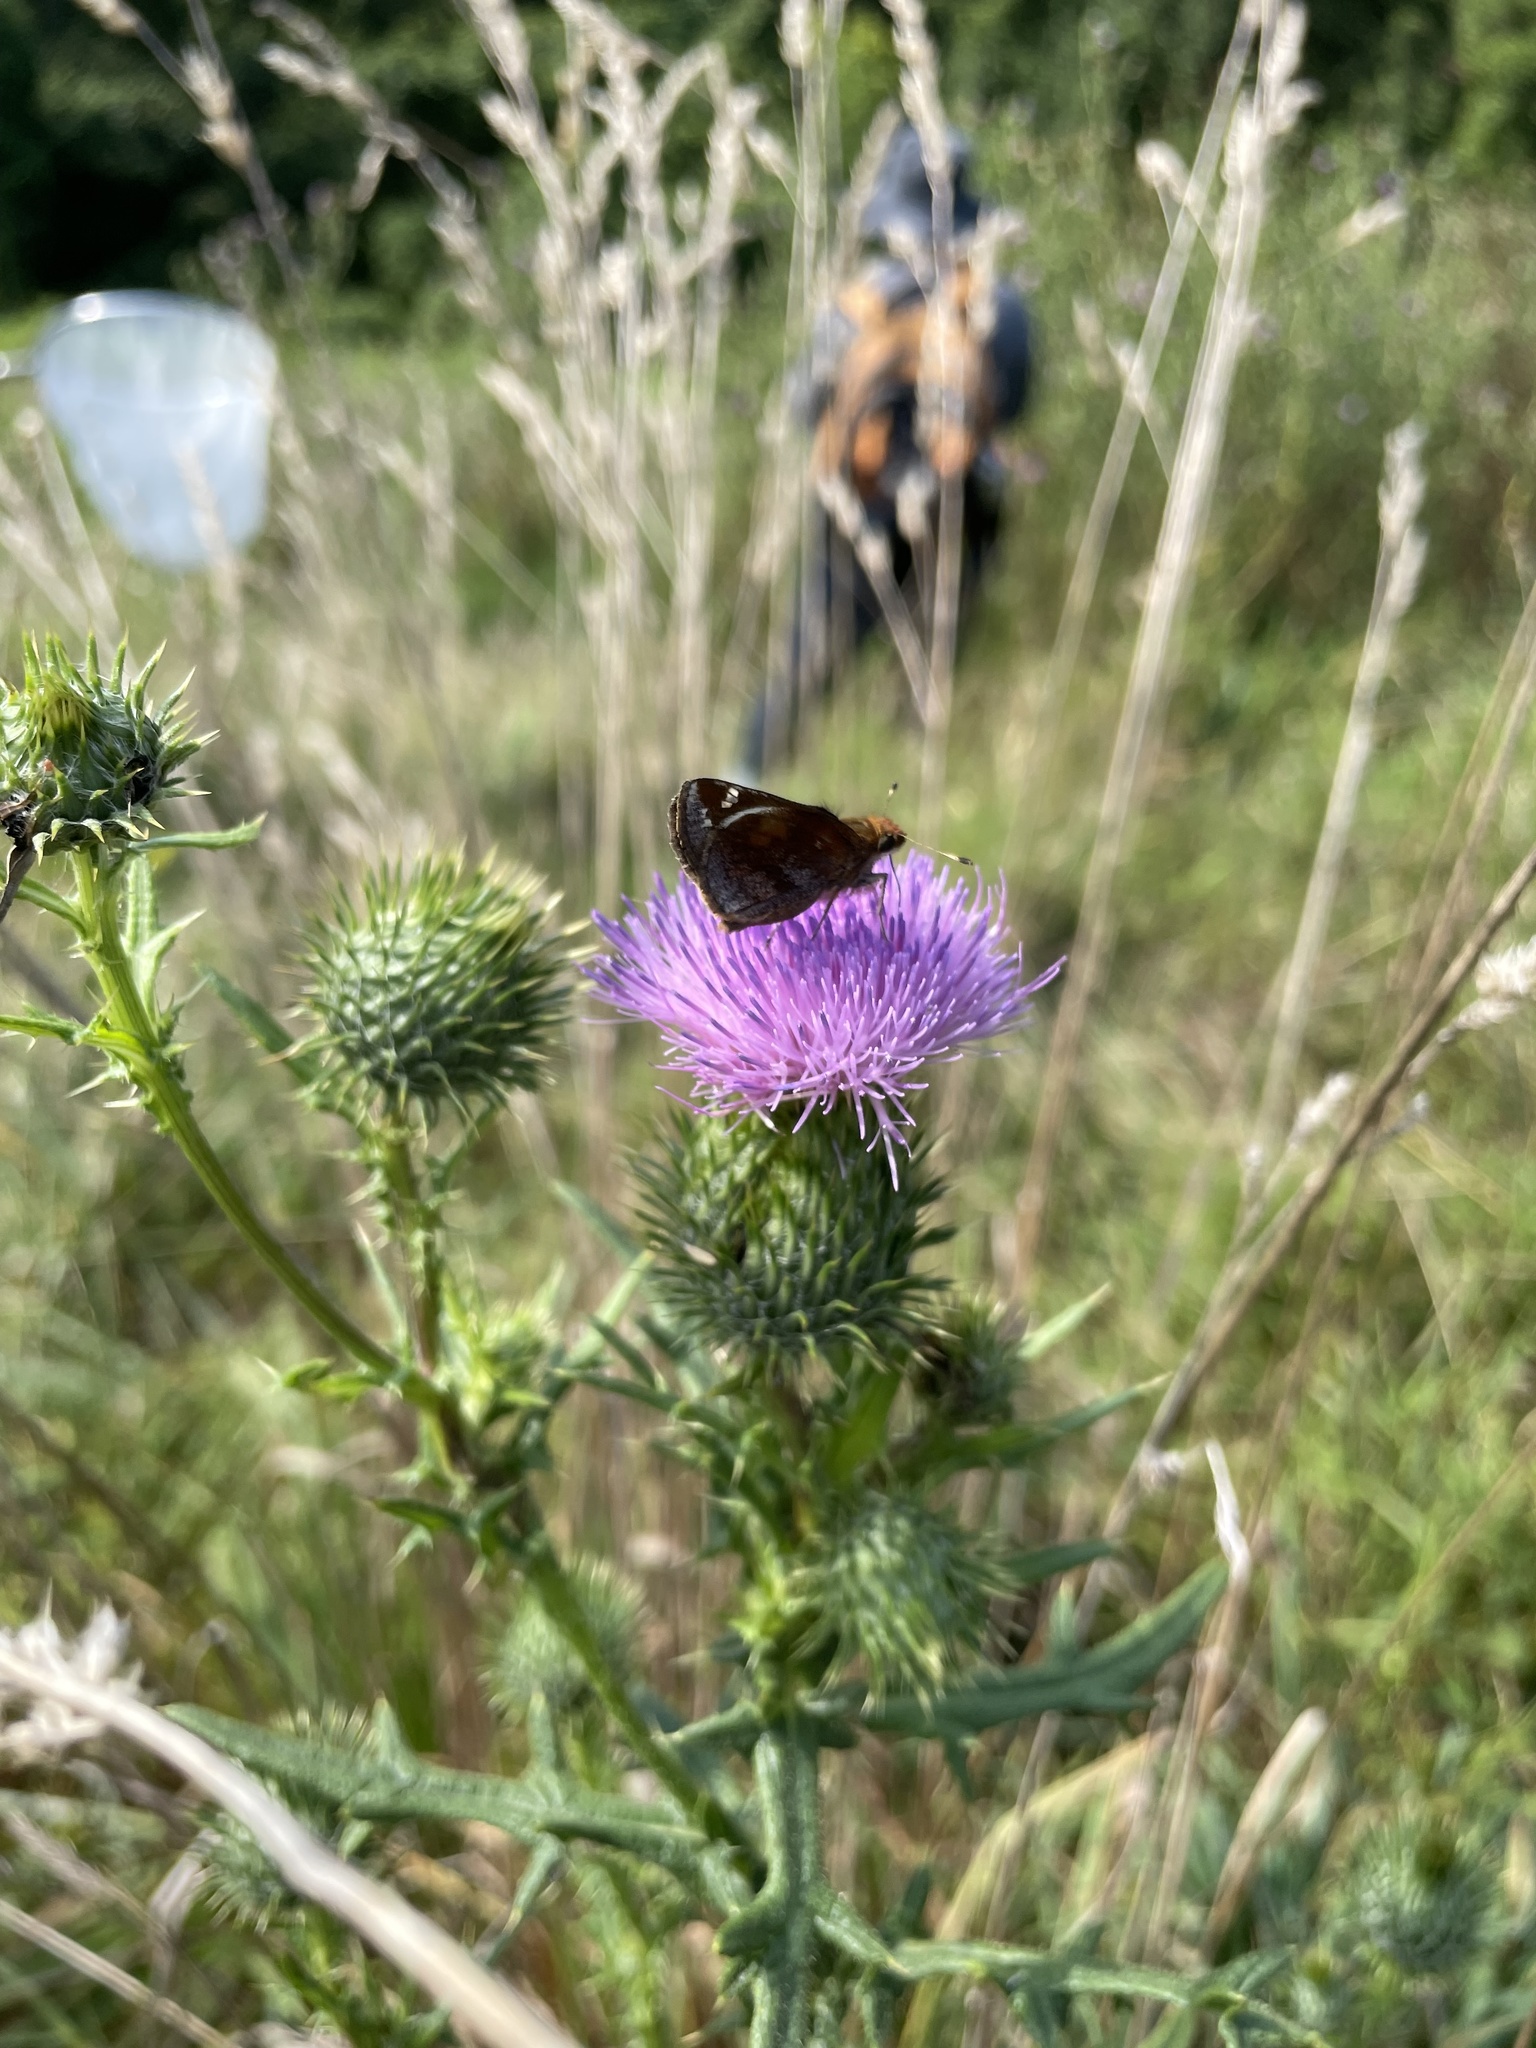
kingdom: Animalia
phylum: Arthropoda
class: Insecta
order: Lepidoptera
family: Hesperiidae
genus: Lon
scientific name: Lon zabulon
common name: Zabulon skipper
